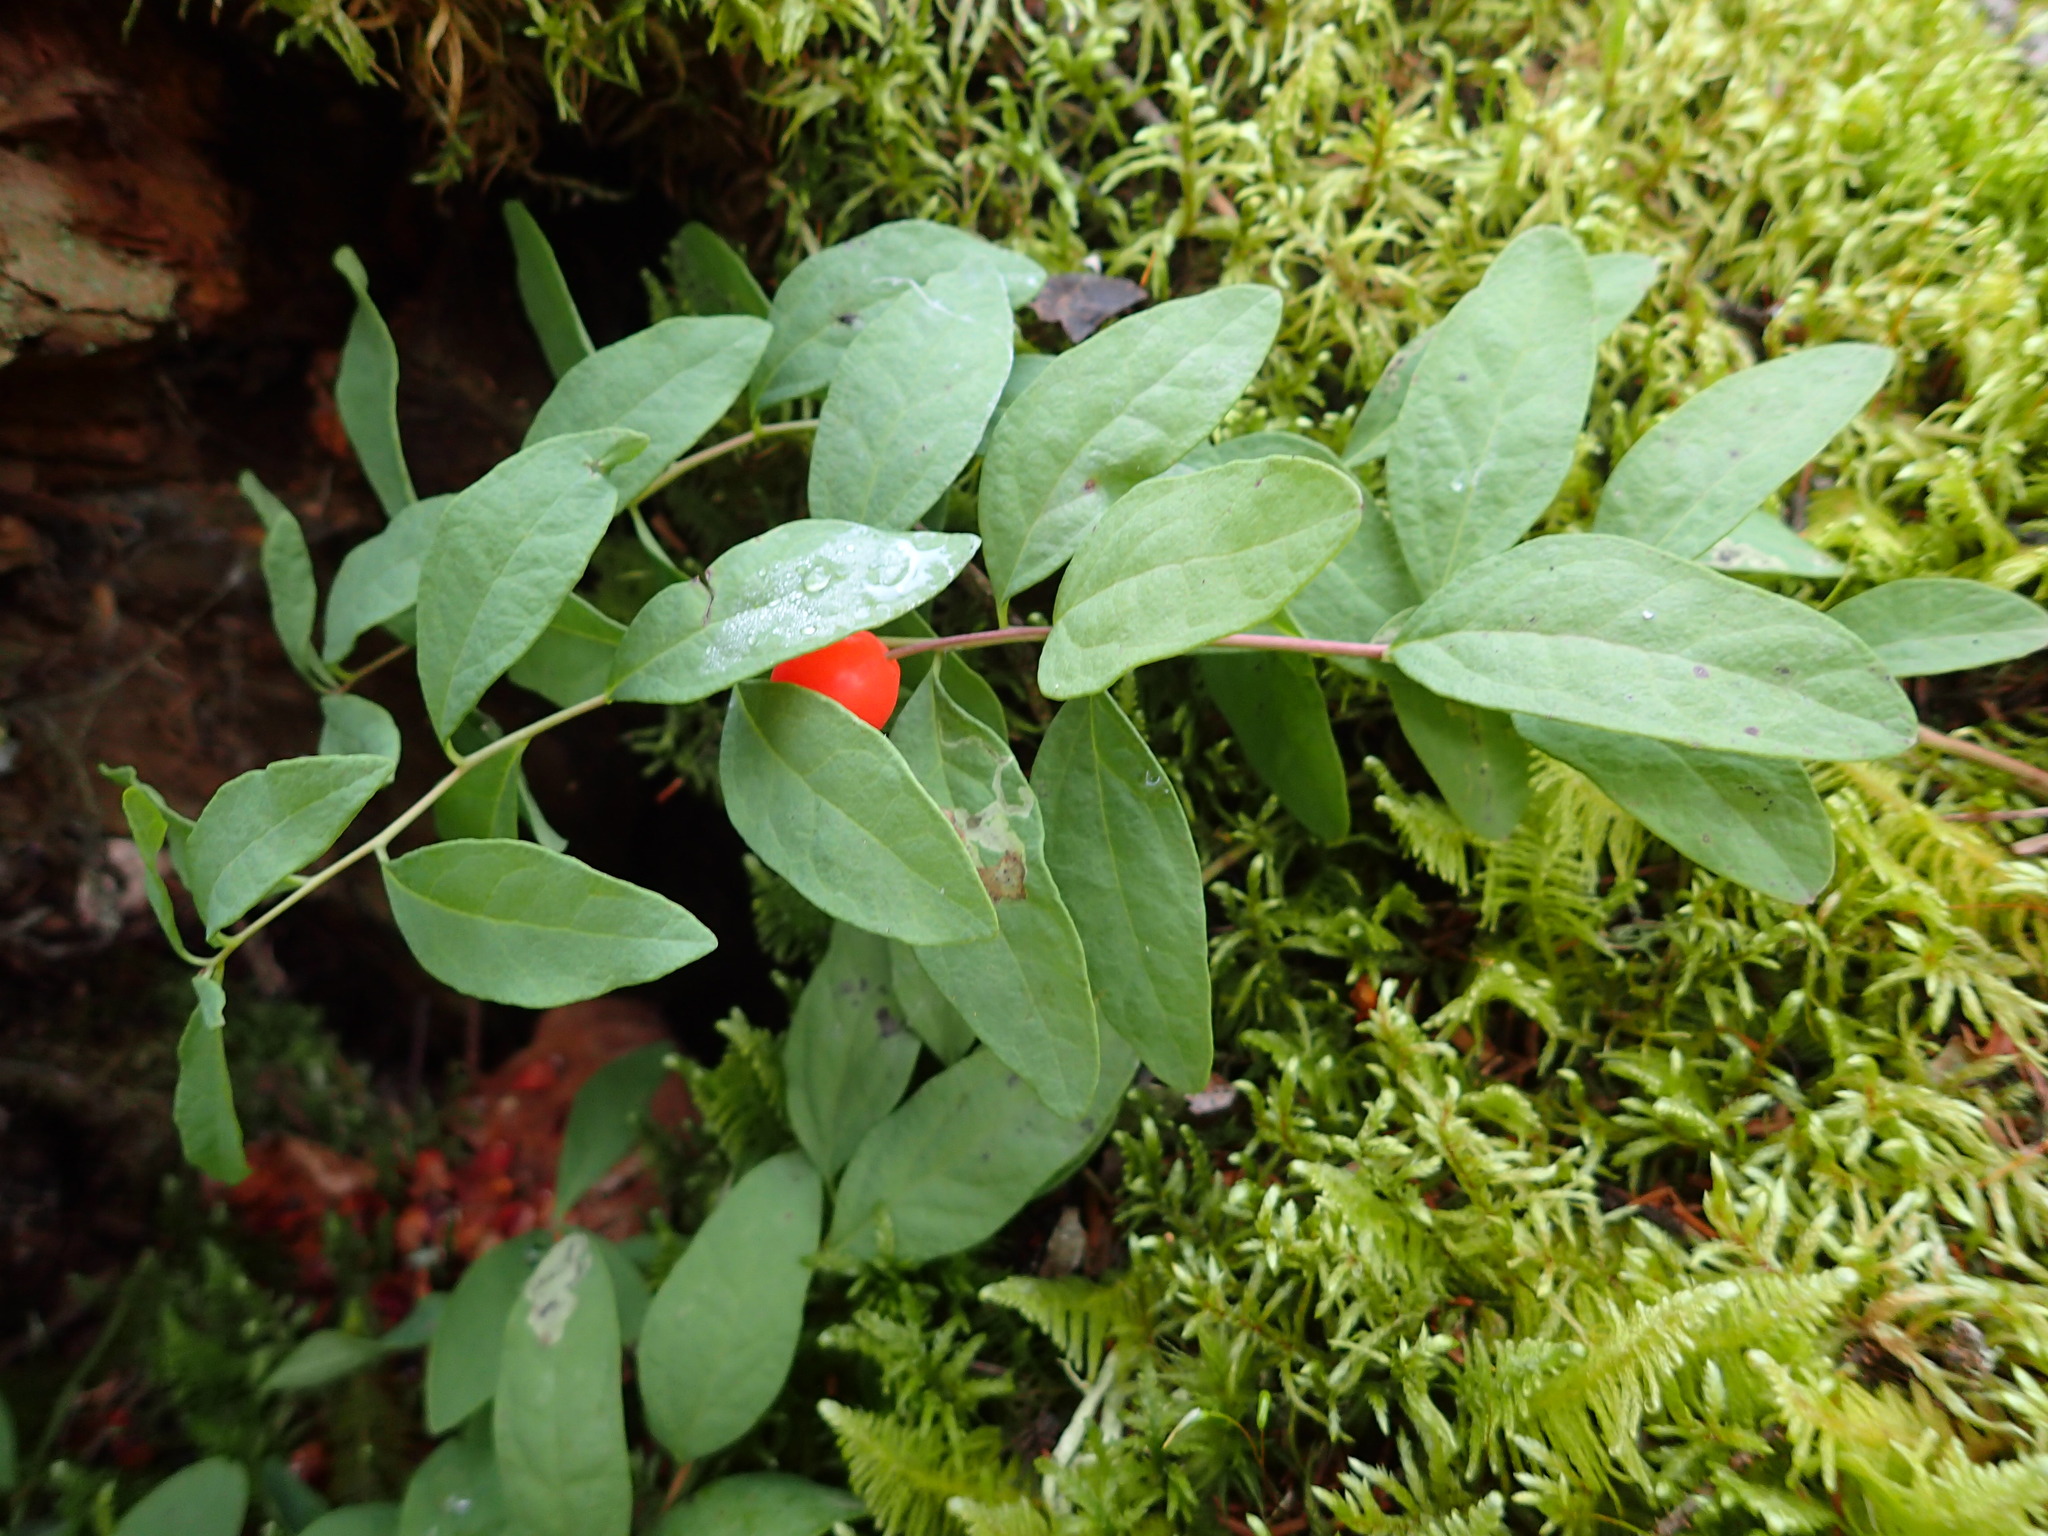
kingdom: Plantae
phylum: Tracheophyta
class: Magnoliopsida
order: Santalales
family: Comandraceae
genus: Geocaulon
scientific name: Geocaulon lividum
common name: Earthberry
